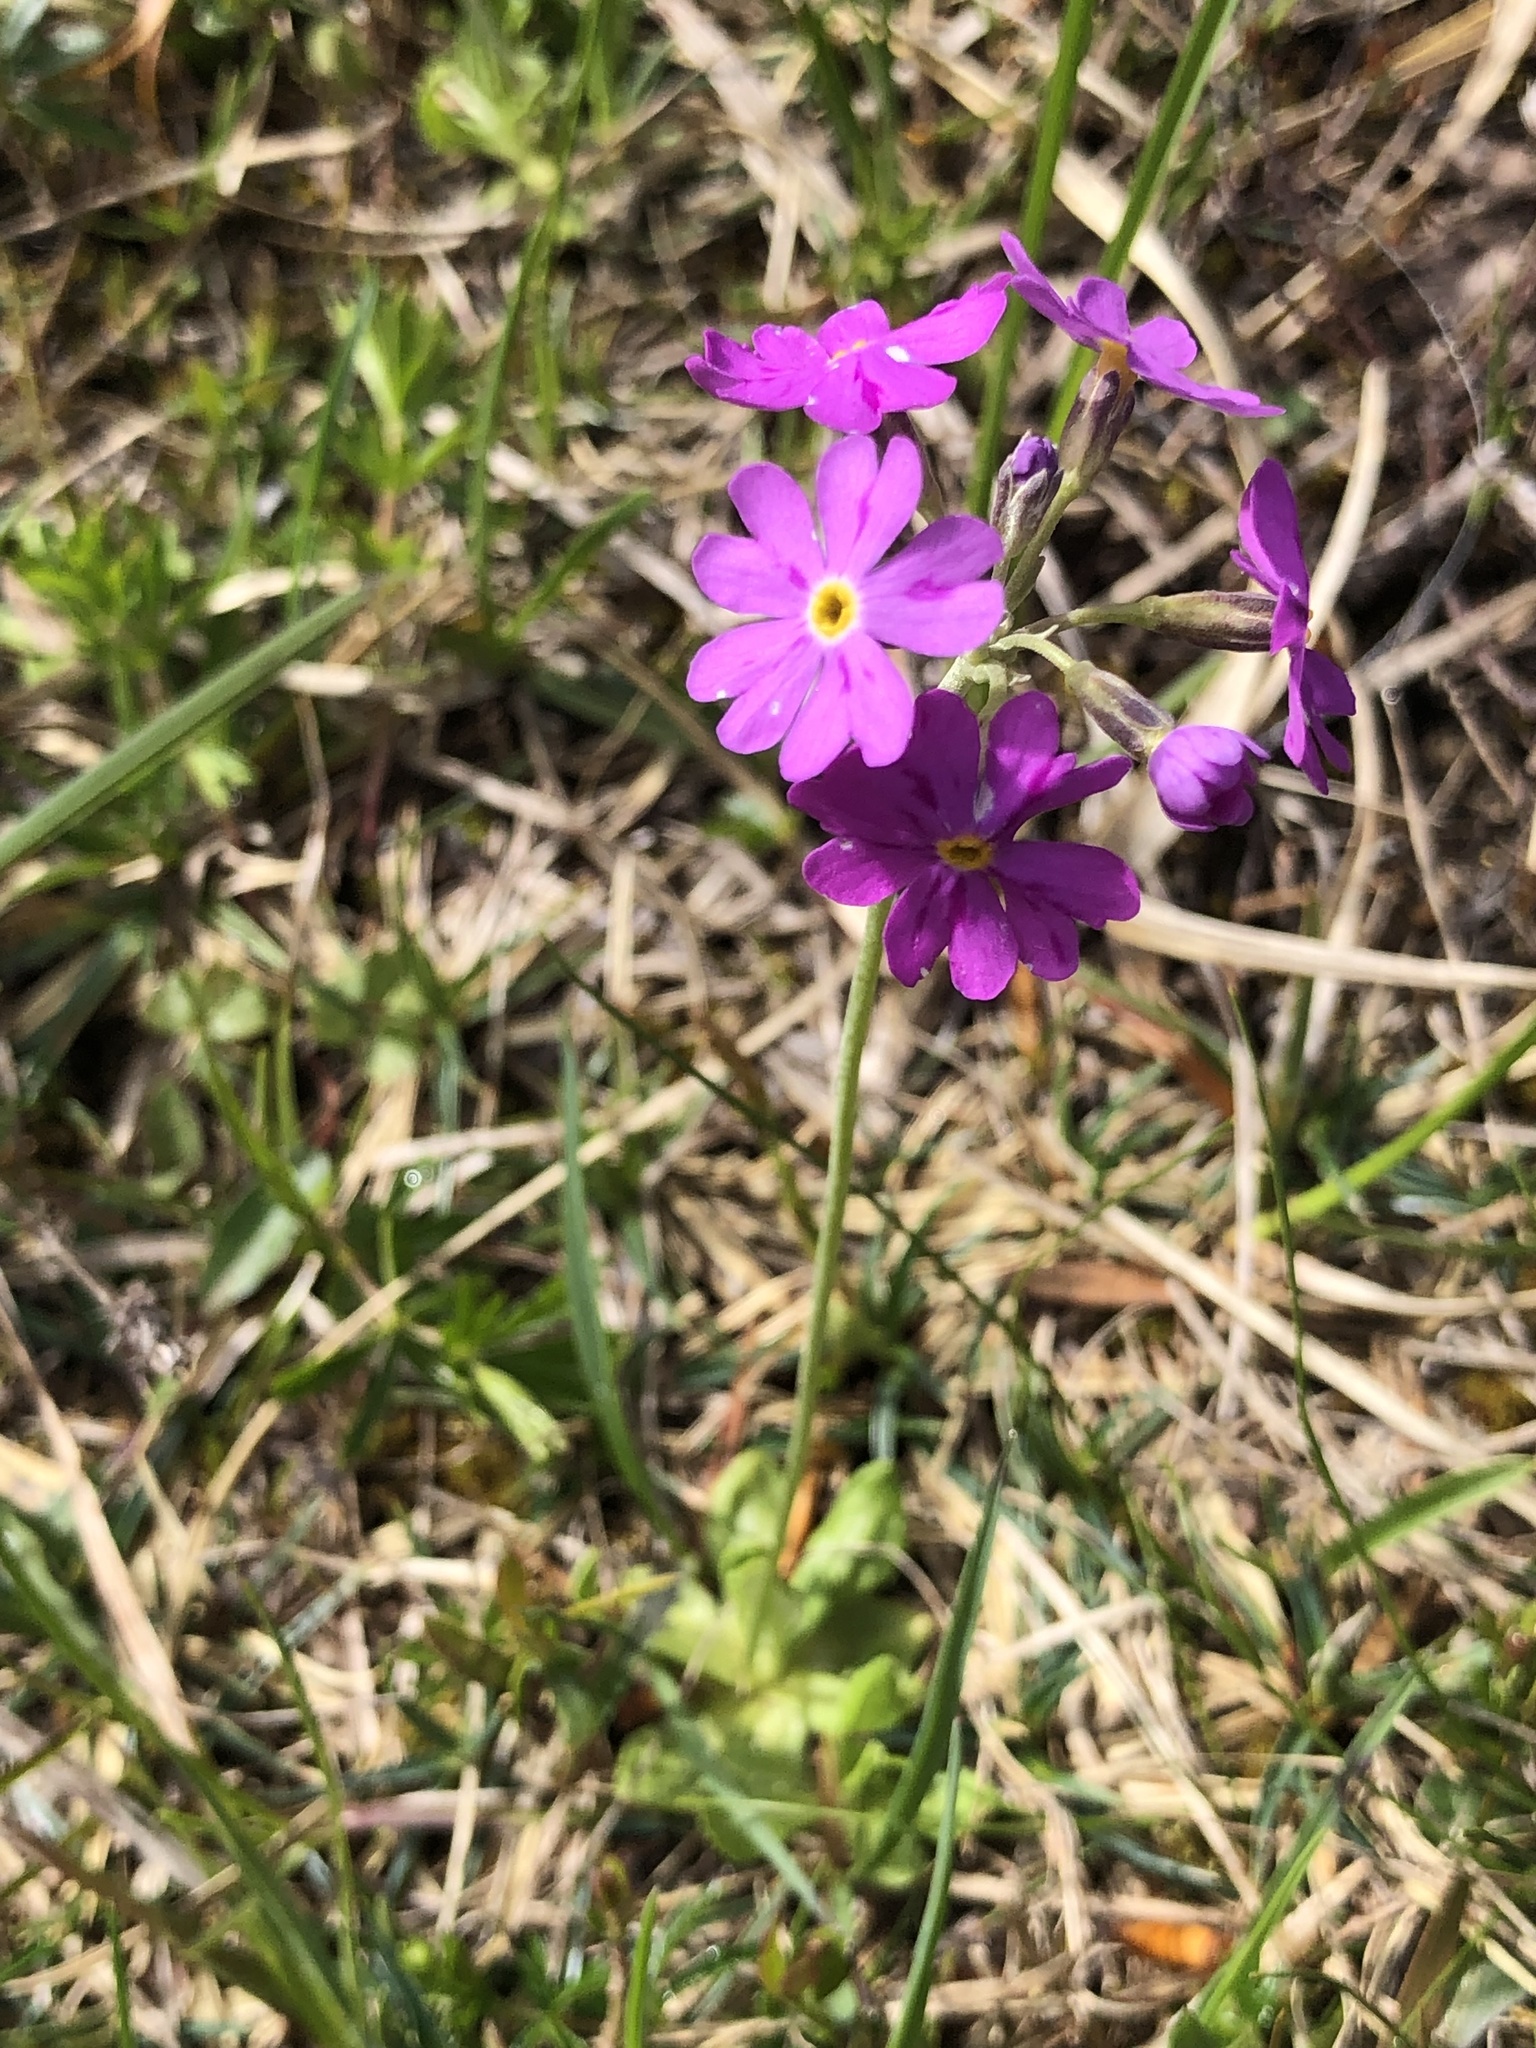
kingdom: Plantae
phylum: Tracheophyta
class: Magnoliopsida
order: Ericales
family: Primulaceae
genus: Primula
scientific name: Primula farinosa
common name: Bird's-eye primrose
